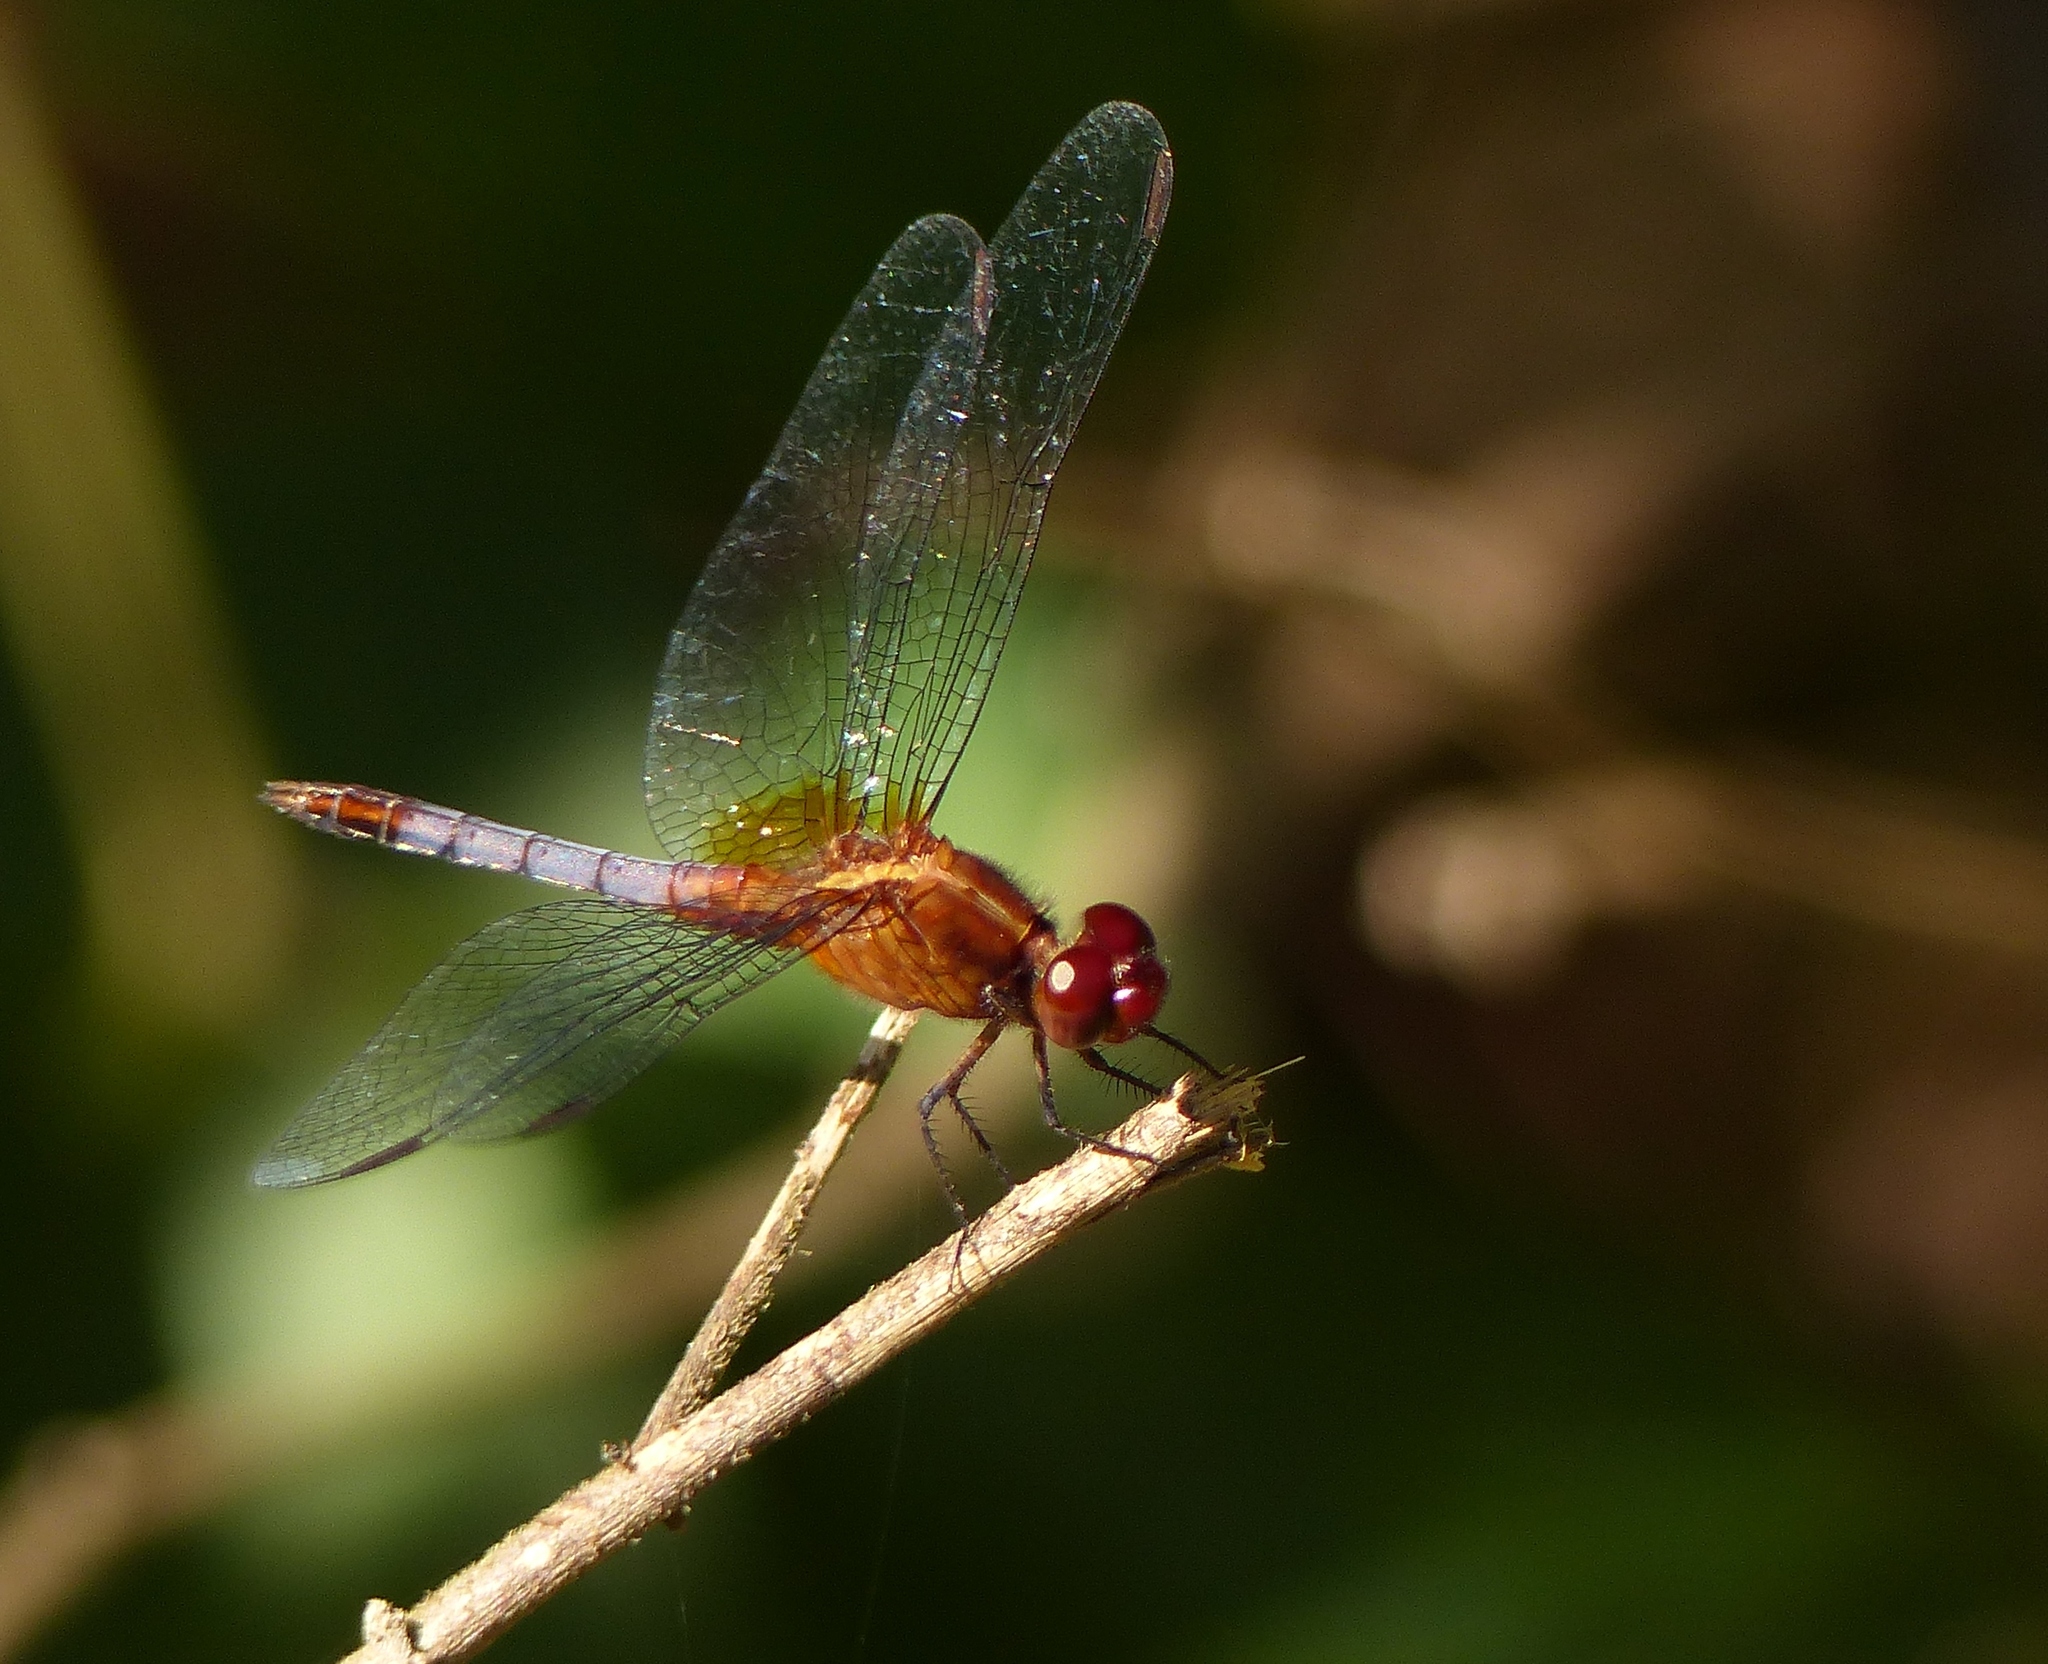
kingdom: Animalia
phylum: Arthropoda
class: Insecta
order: Odonata
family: Libellulidae
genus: Erythrodiplax
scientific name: Erythrodiplax fusca
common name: Red-faced dragonlet
